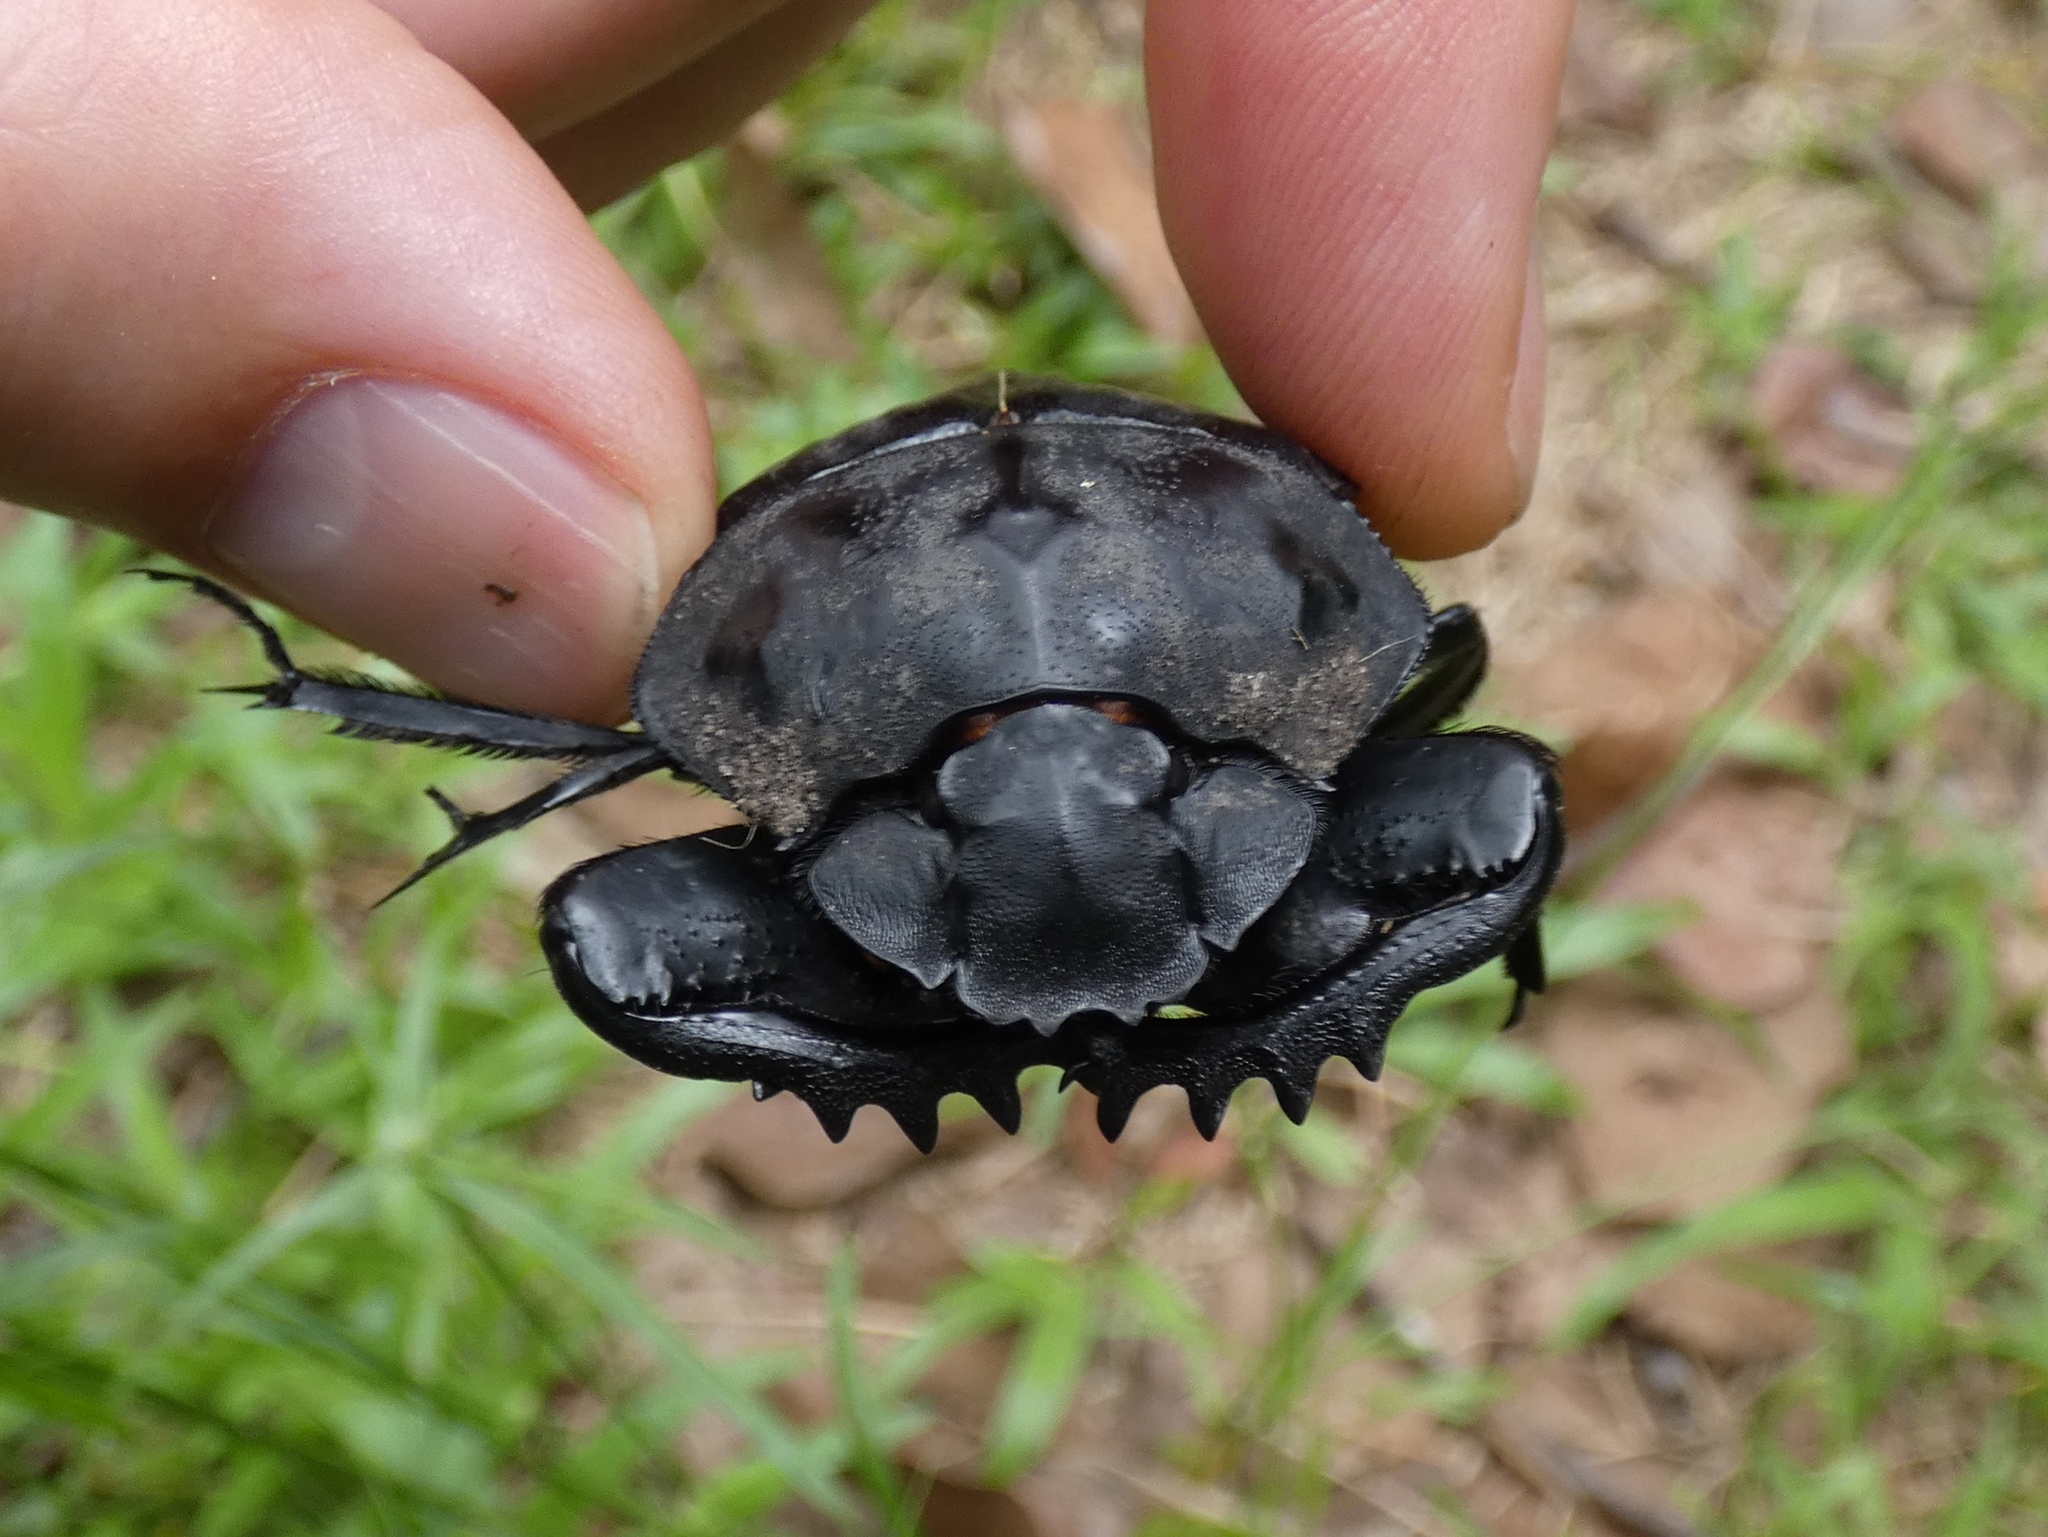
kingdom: Animalia
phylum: Arthropoda
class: Insecta
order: Coleoptera
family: Scarabaeidae
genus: Pachylomera
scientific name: Pachylomera femoralis
